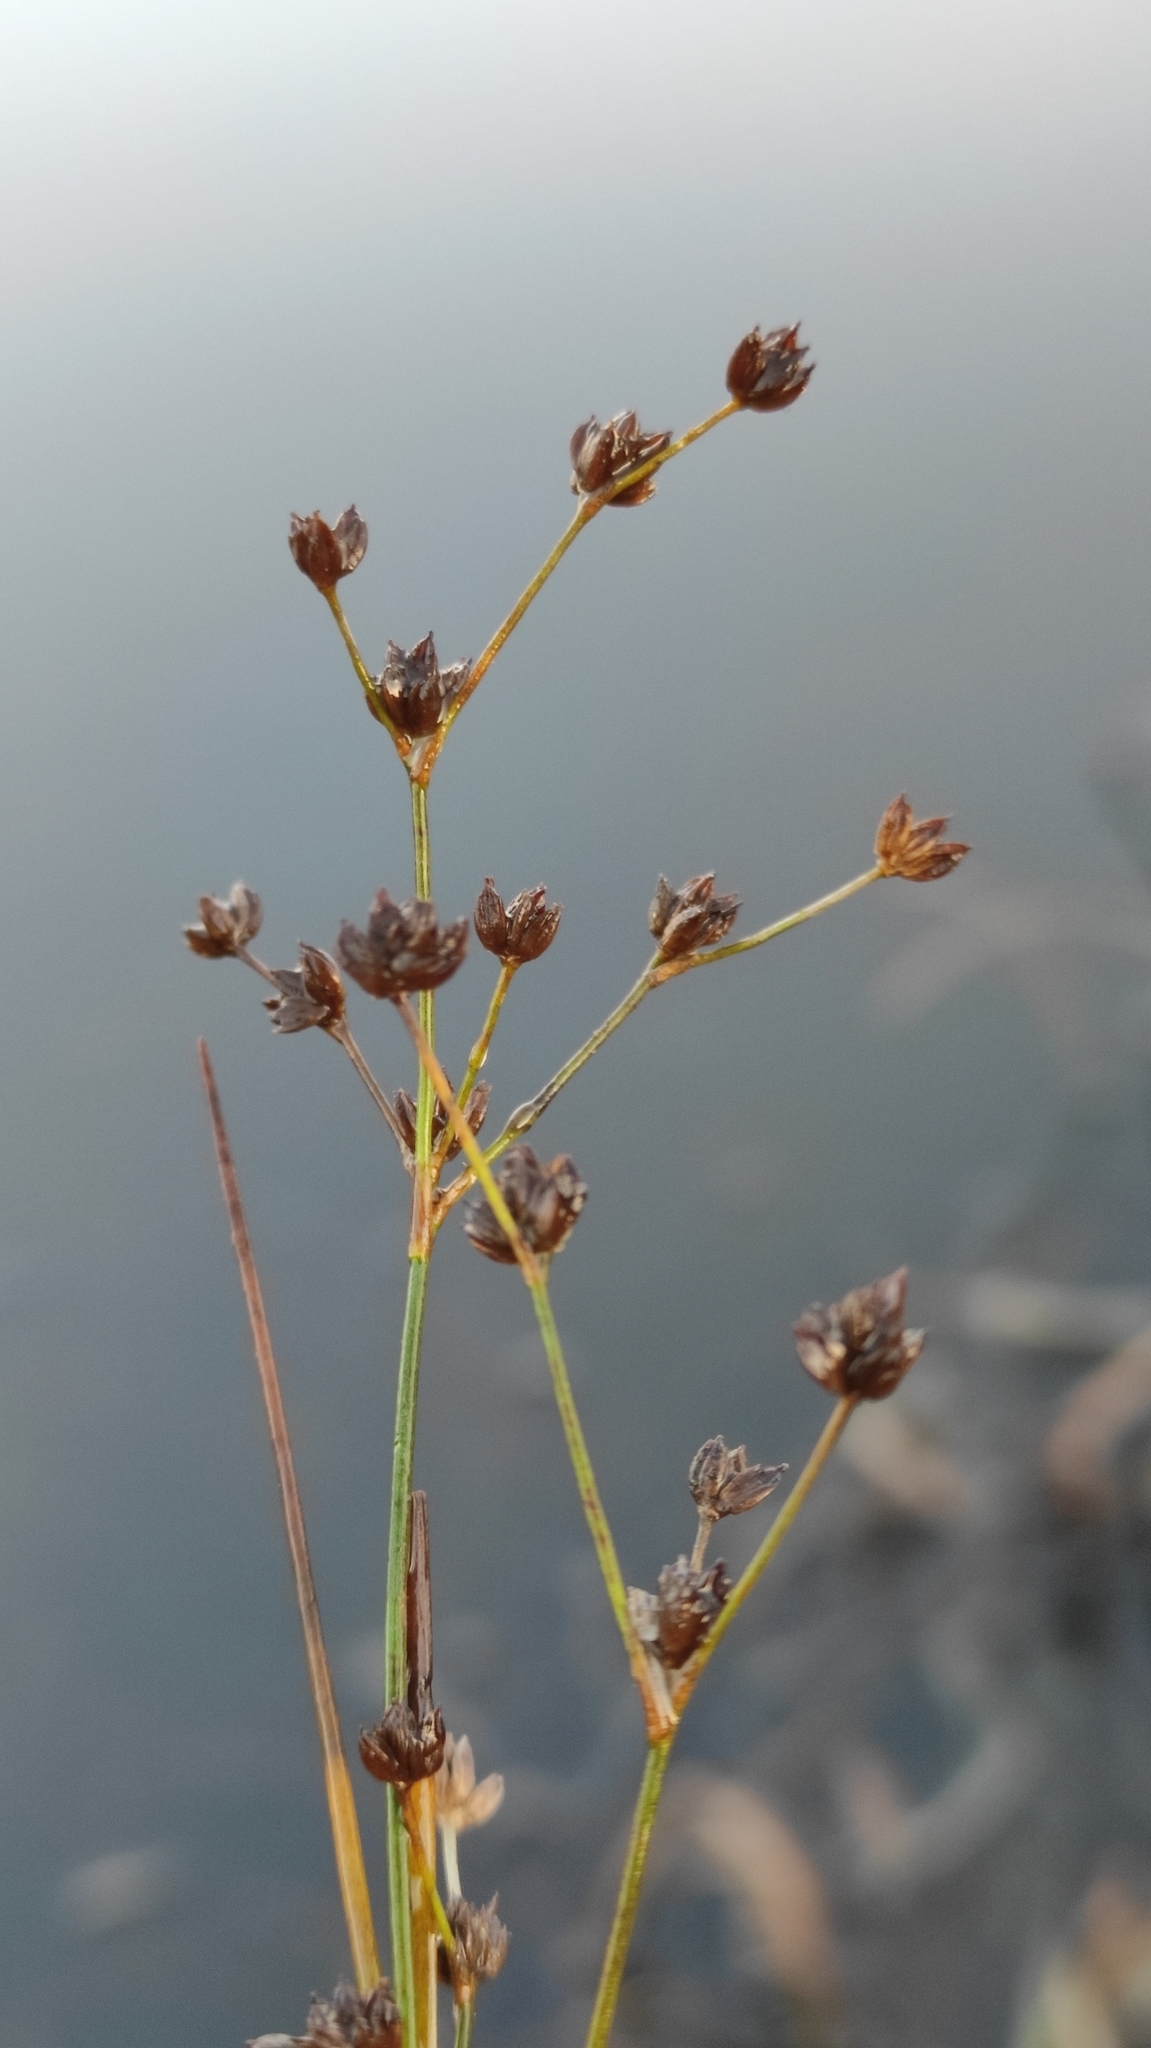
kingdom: Plantae
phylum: Tracheophyta
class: Liliopsida
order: Poales
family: Juncaceae
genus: Juncus
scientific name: Juncus articulatus
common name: Jointed rush
